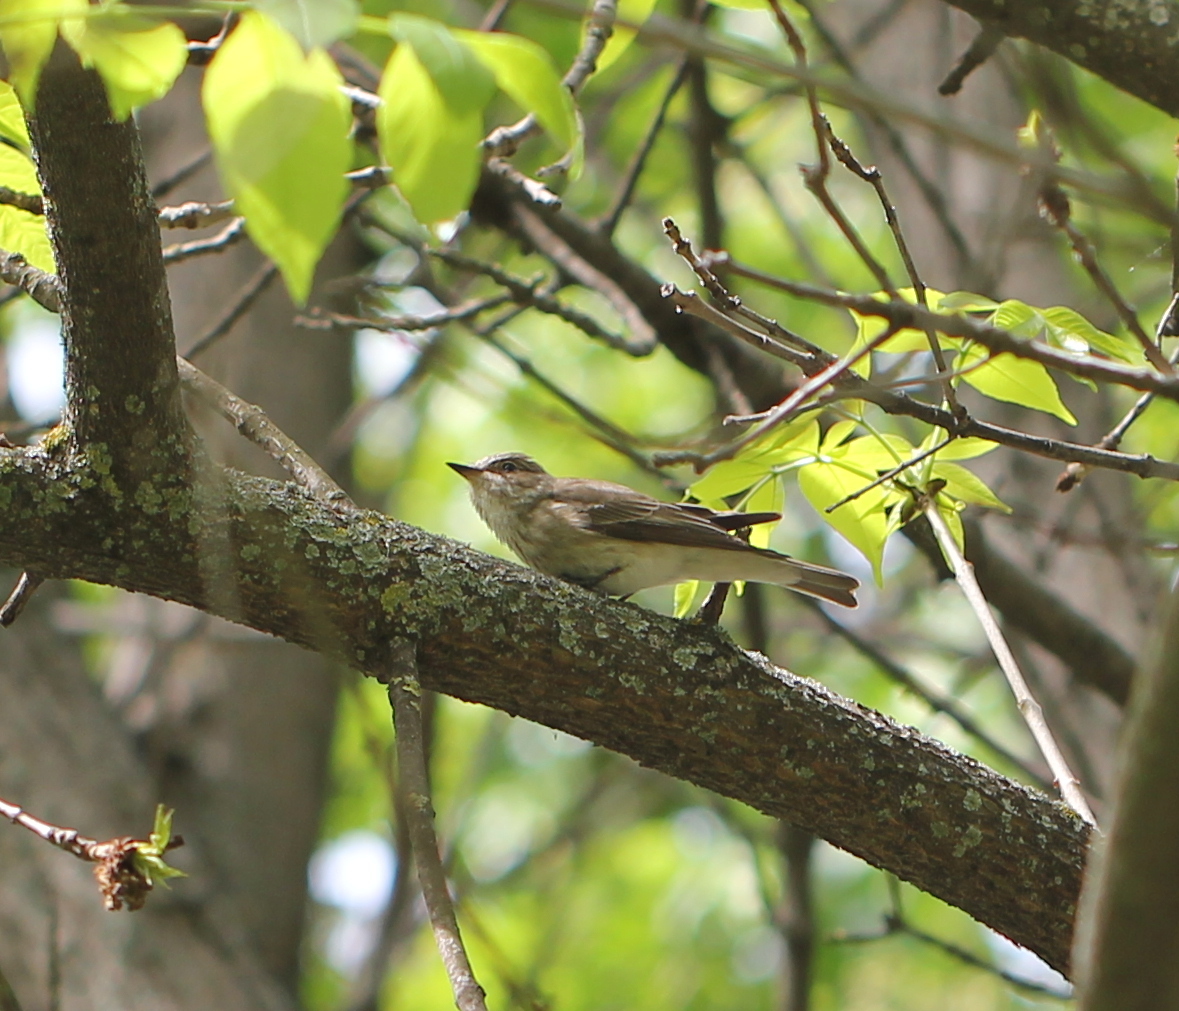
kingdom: Animalia
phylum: Chordata
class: Aves
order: Passeriformes
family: Muscicapidae
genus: Muscicapa
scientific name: Muscicapa striata
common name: Spotted flycatcher
